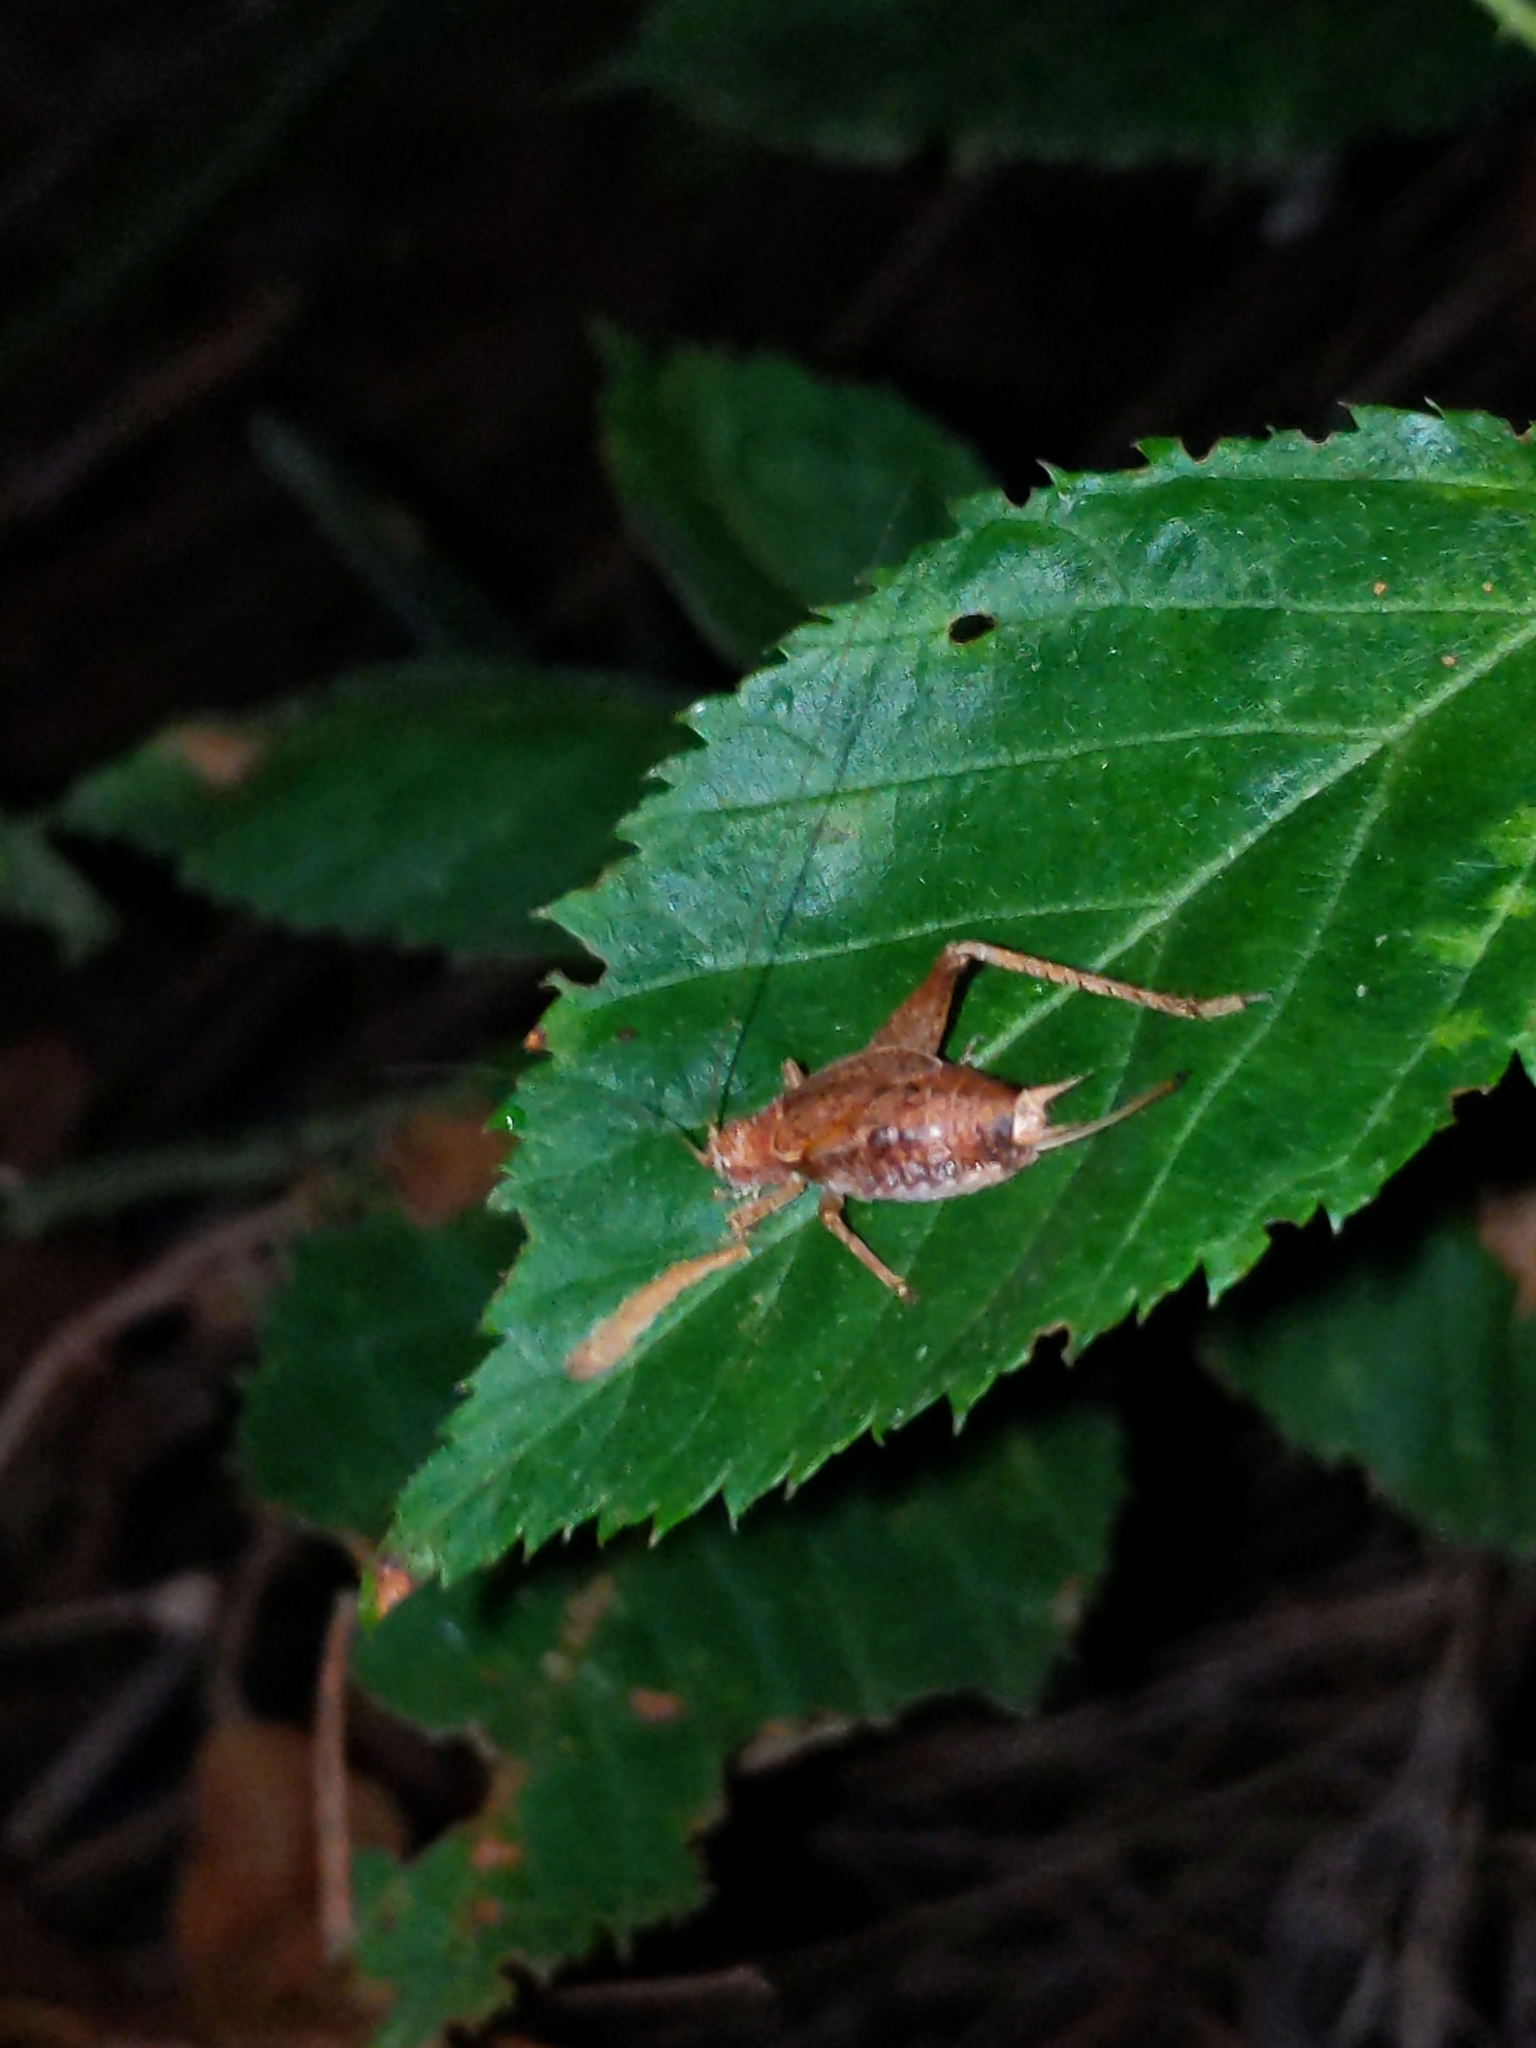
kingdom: Animalia
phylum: Arthropoda
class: Insecta
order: Orthoptera
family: Gryllidae
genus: Hapithus
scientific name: Hapithus agitator
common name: Restless bush cricket
